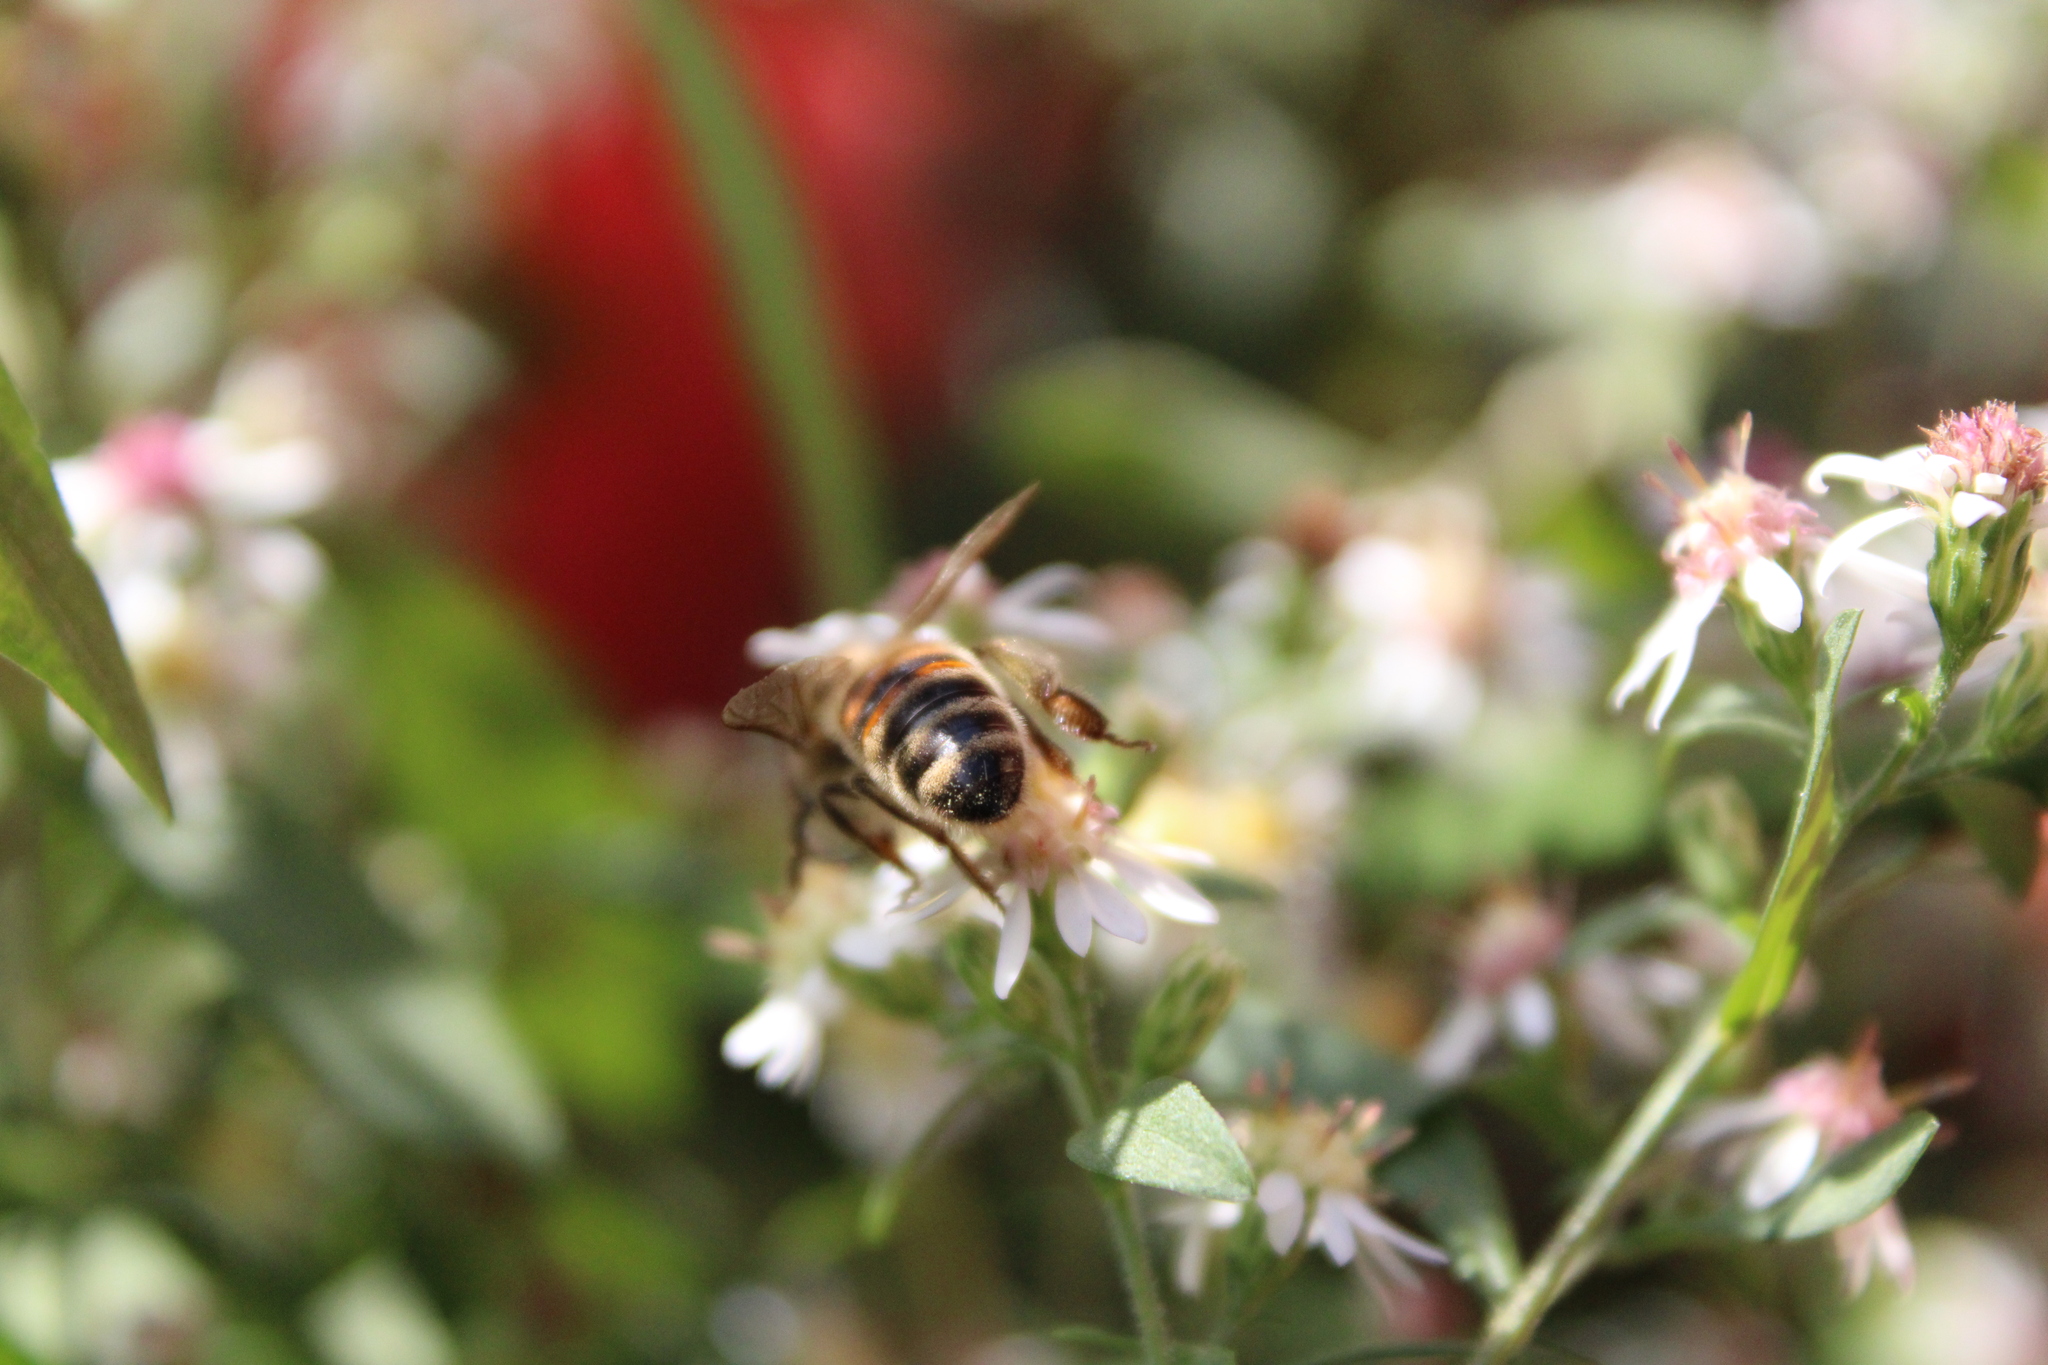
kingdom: Animalia
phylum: Arthropoda
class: Insecta
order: Hymenoptera
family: Apidae
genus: Apis
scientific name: Apis mellifera
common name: Honey bee
